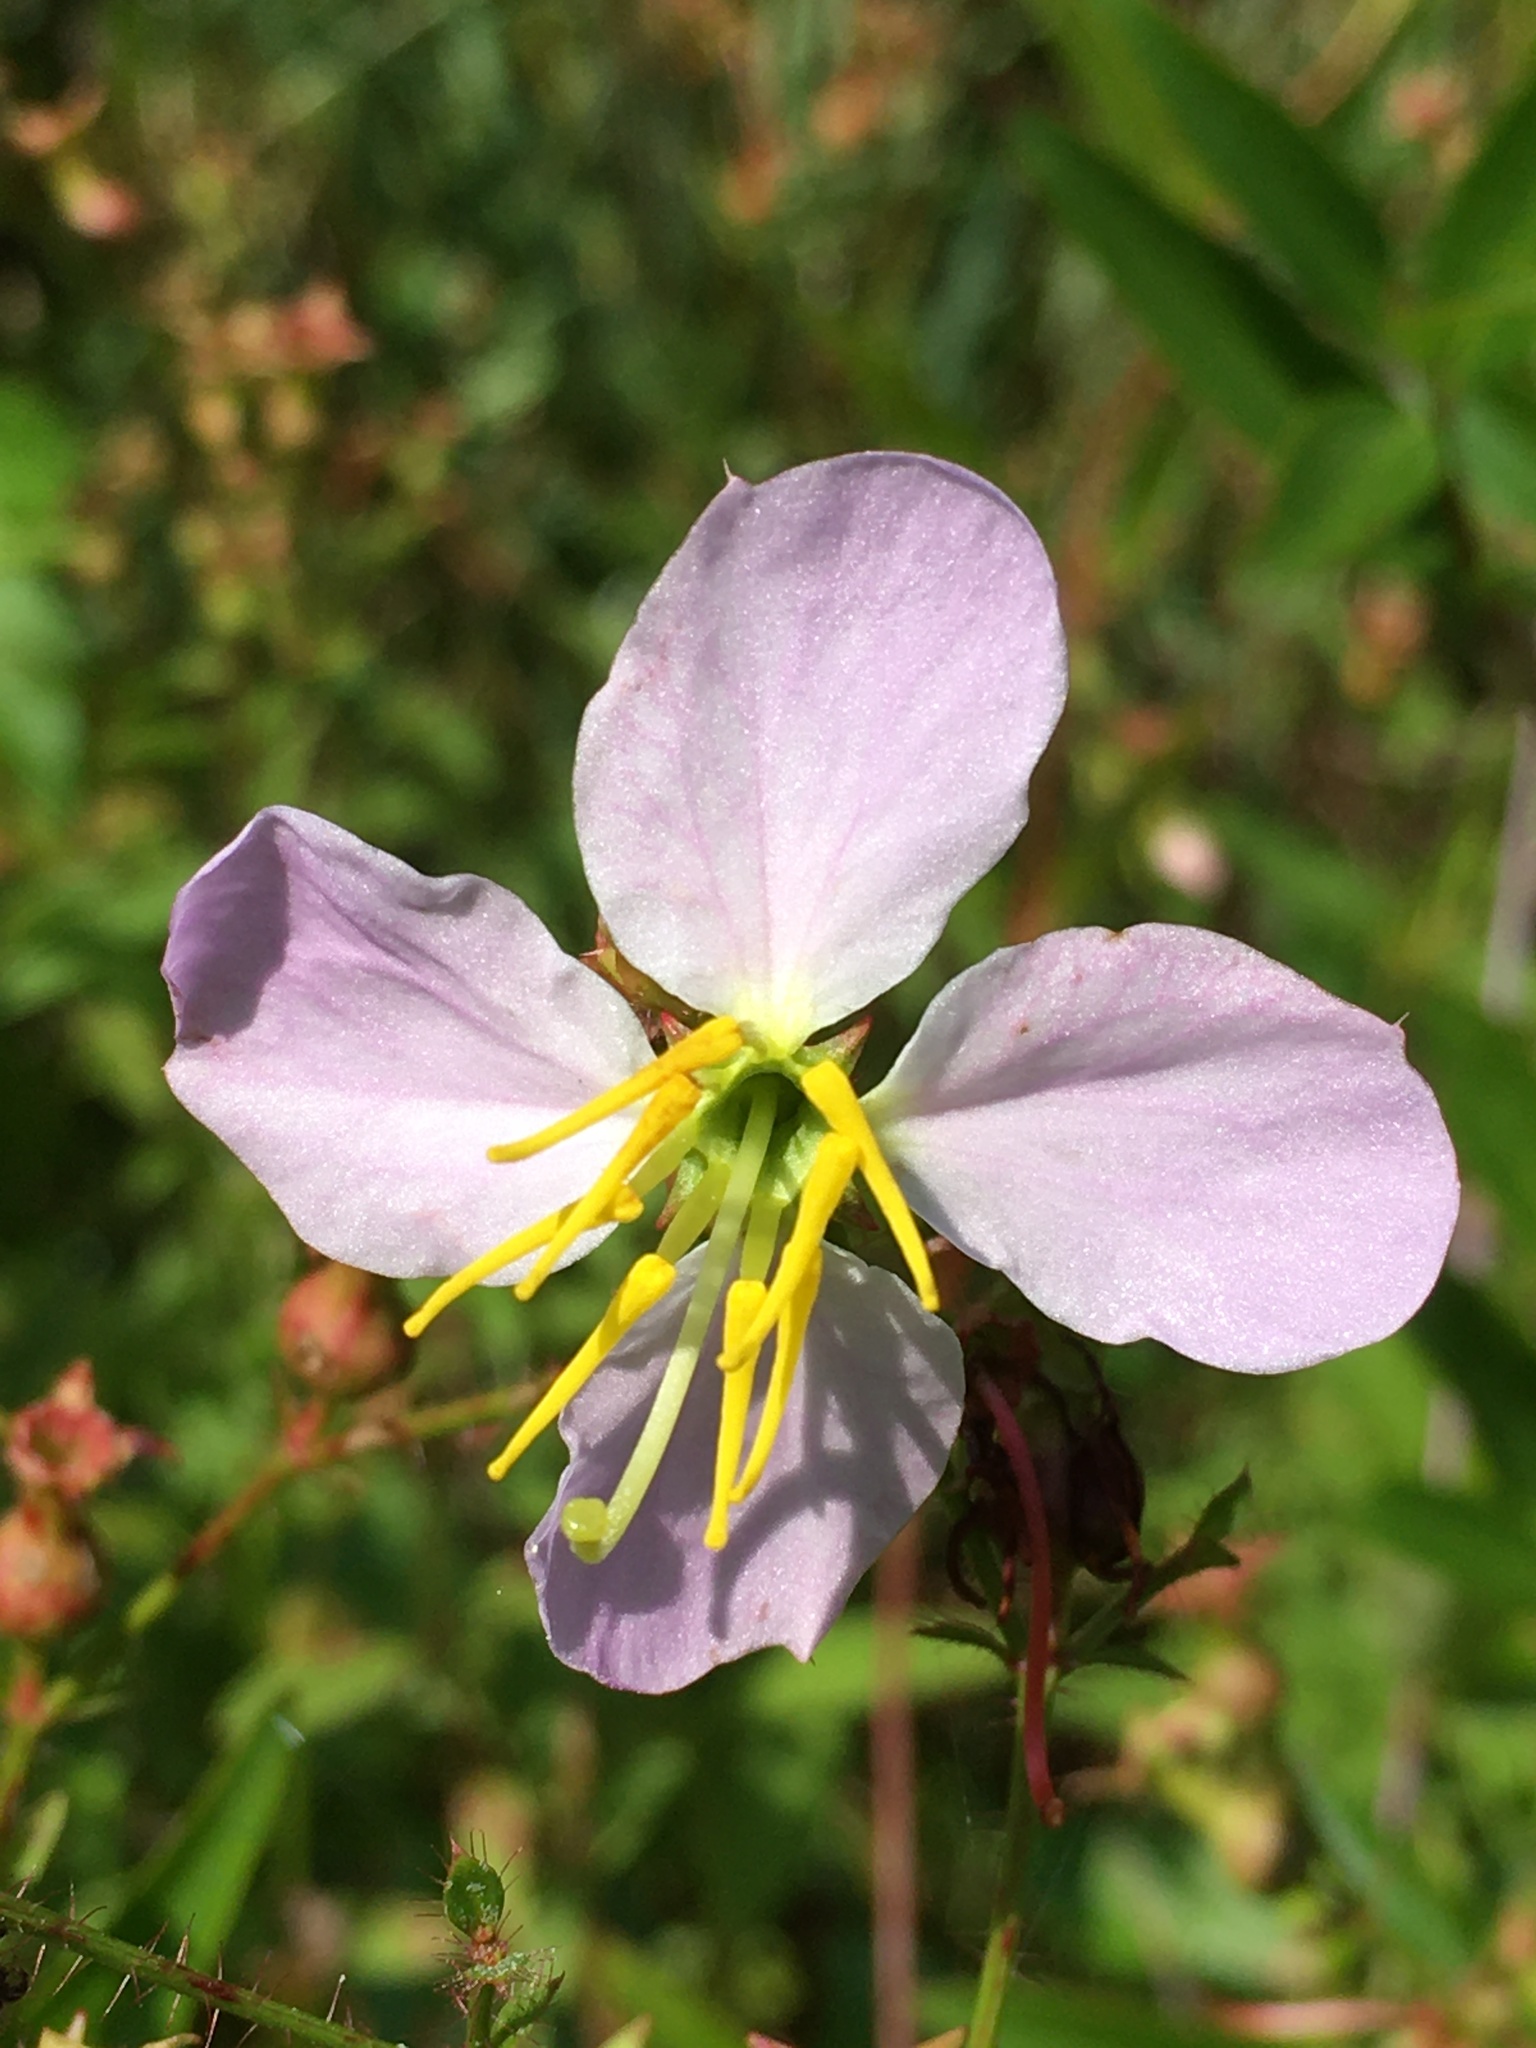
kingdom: Plantae
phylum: Tracheophyta
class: Magnoliopsida
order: Myrtales
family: Melastomataceae
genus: Rhexia
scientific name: Rhexia mariana
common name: Dull meadow-pitcher
